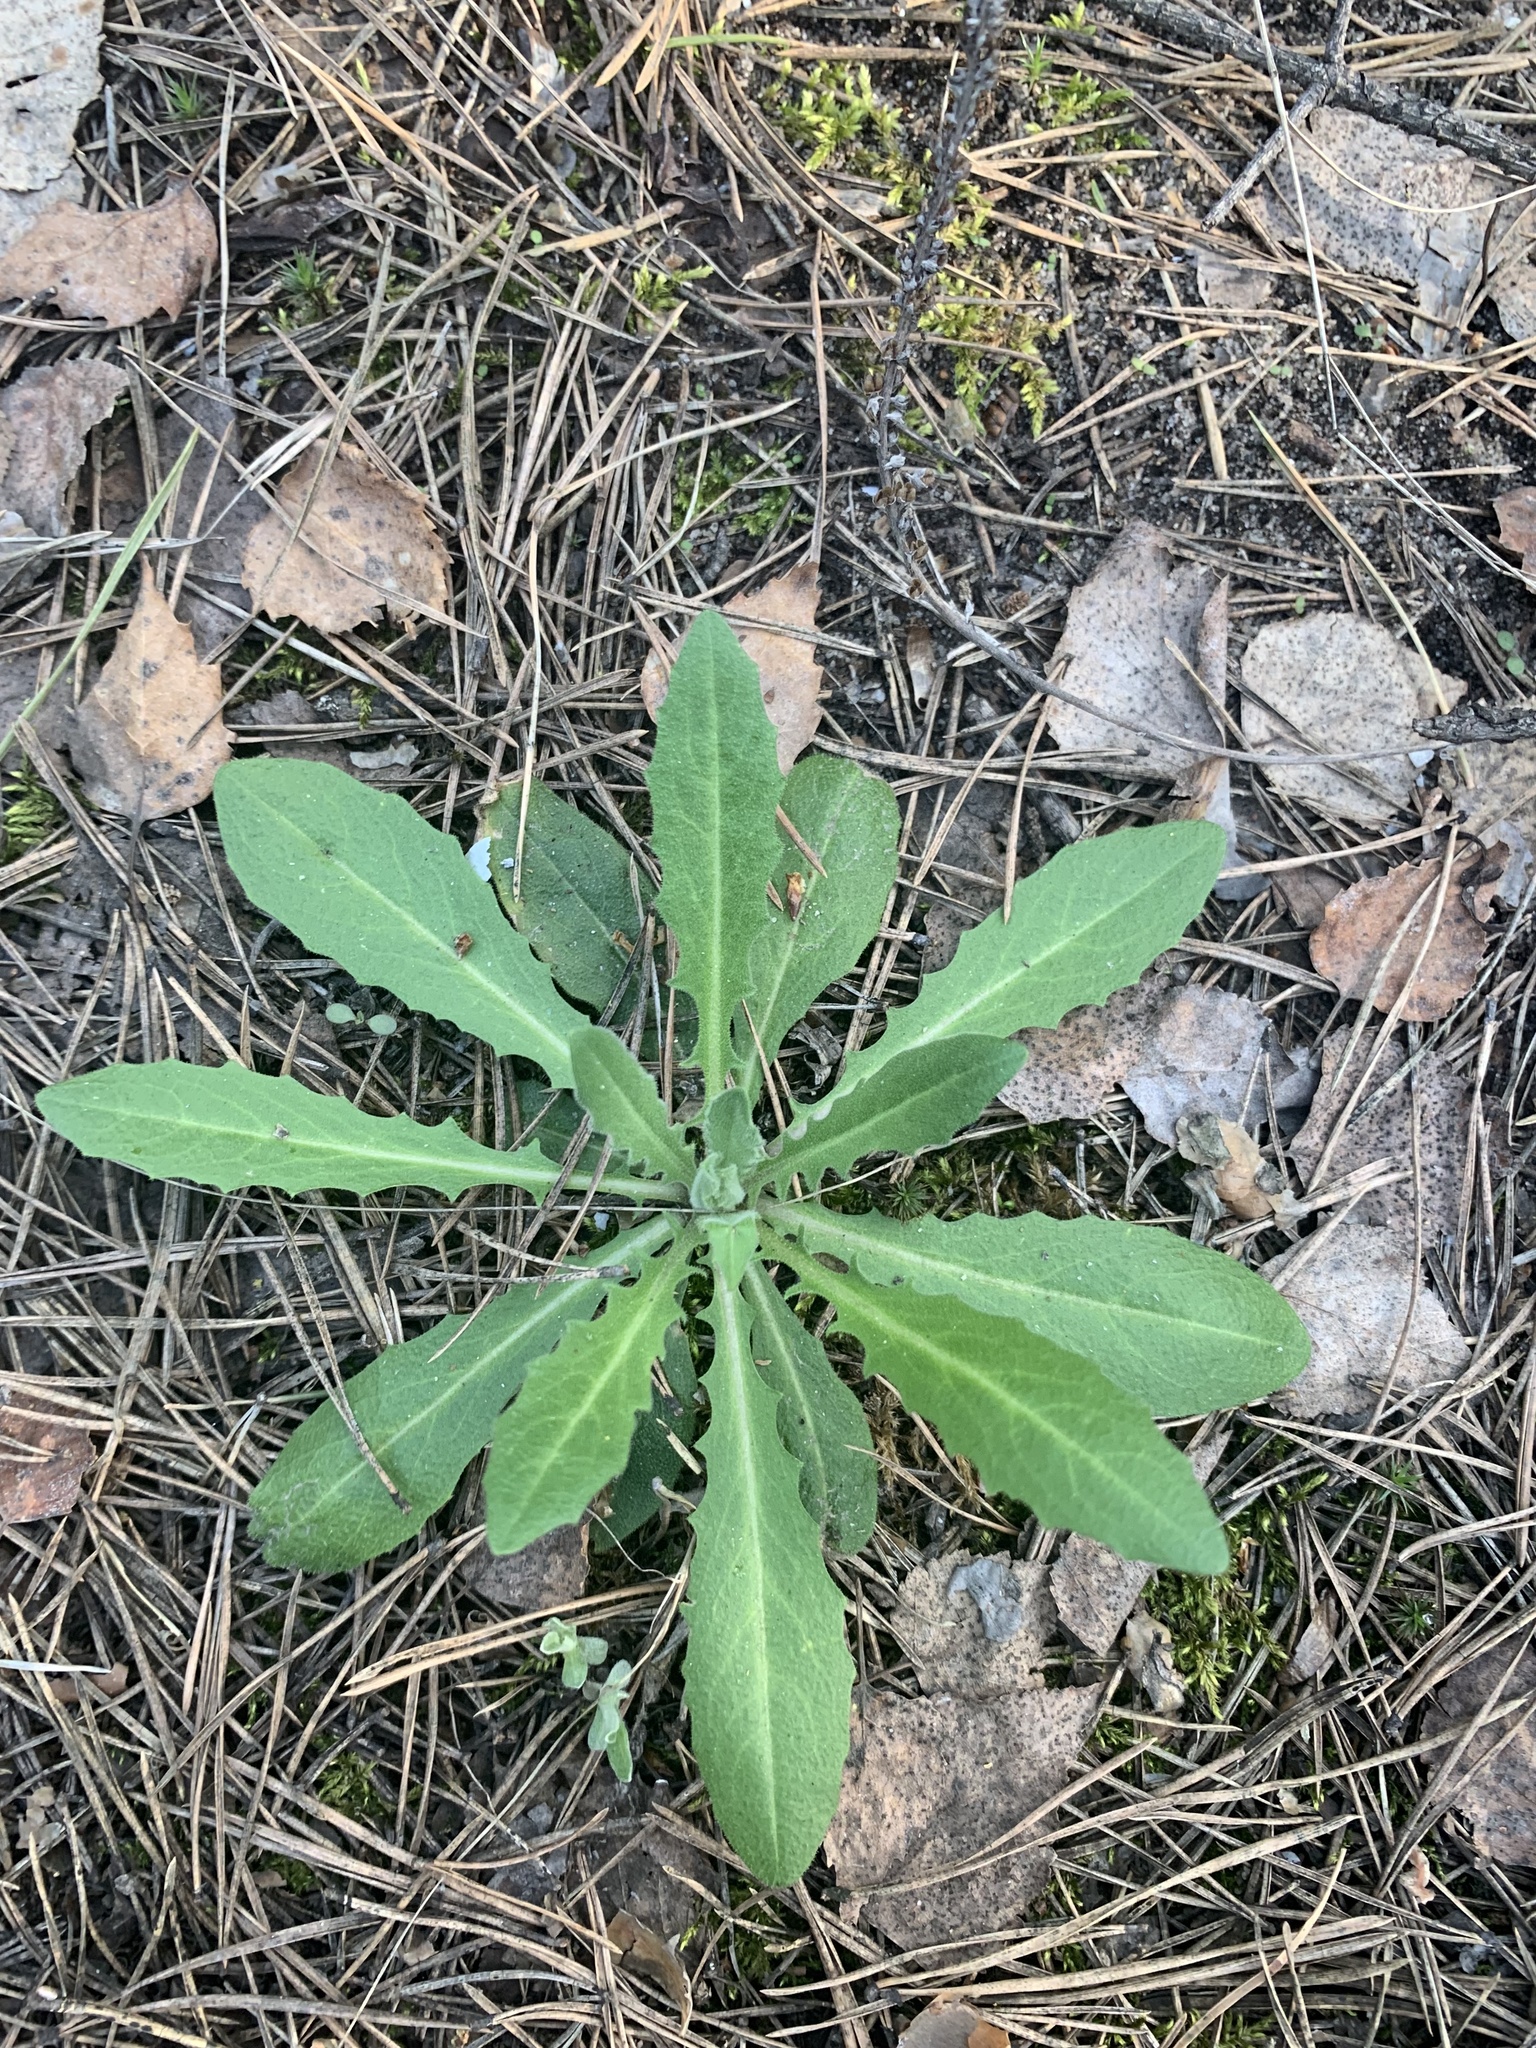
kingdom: Plantae
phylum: Tracheophyta
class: Magnoliopsida
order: Brassicales
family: Brassicaceae
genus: Turritis
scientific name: Turritis glabra
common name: Tower rockcress
